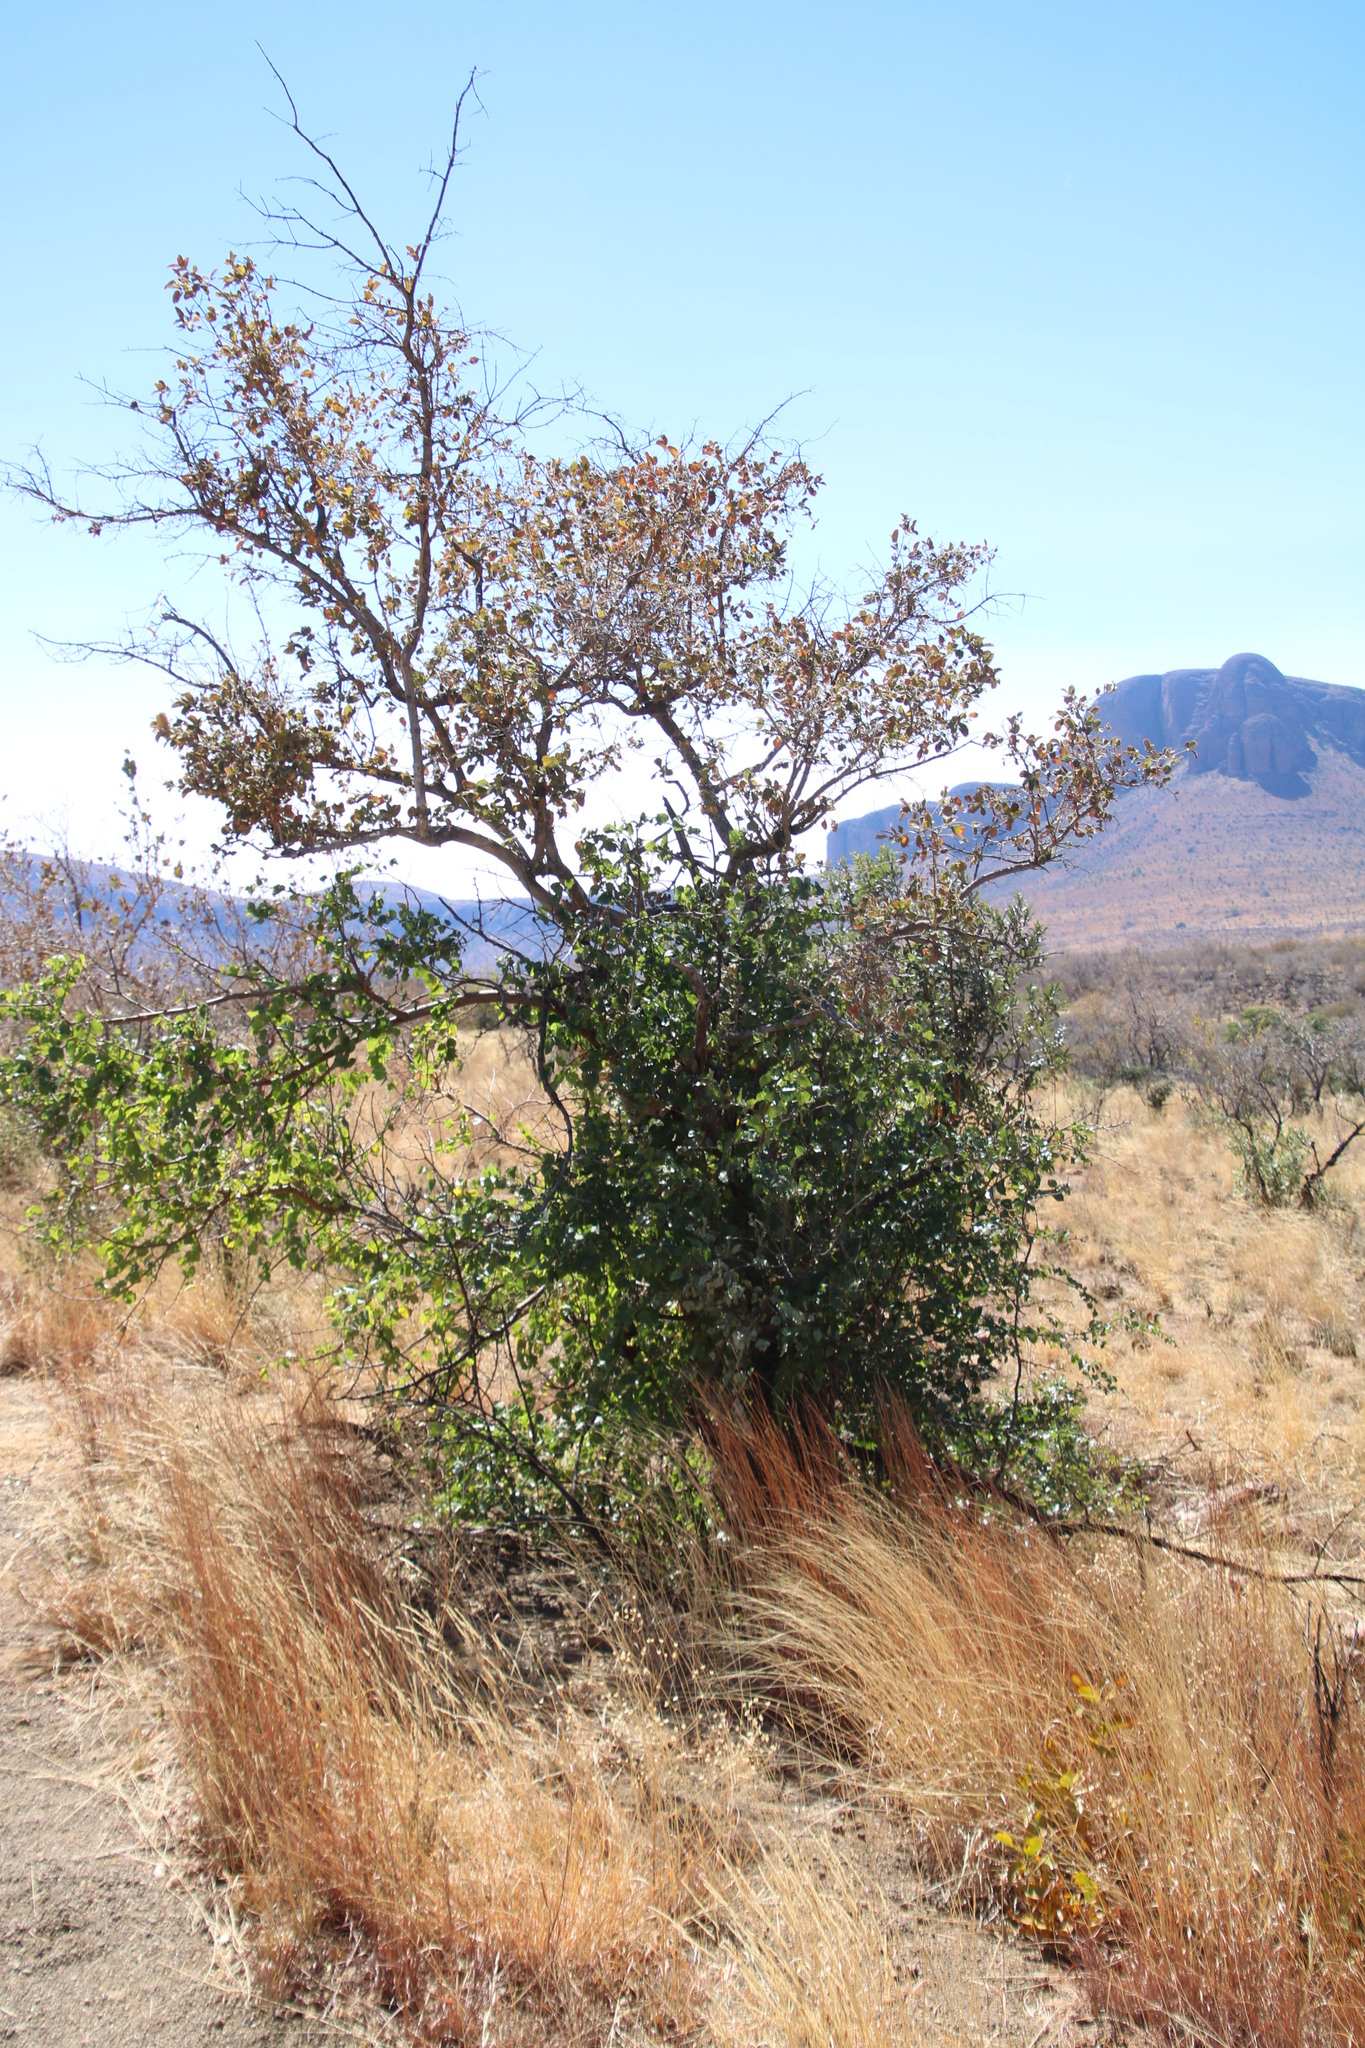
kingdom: Plantae
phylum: Tracheophyta
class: Magnoliopsida
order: Myrtales
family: Combretaceae
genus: Combretum
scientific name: Combretum molle
